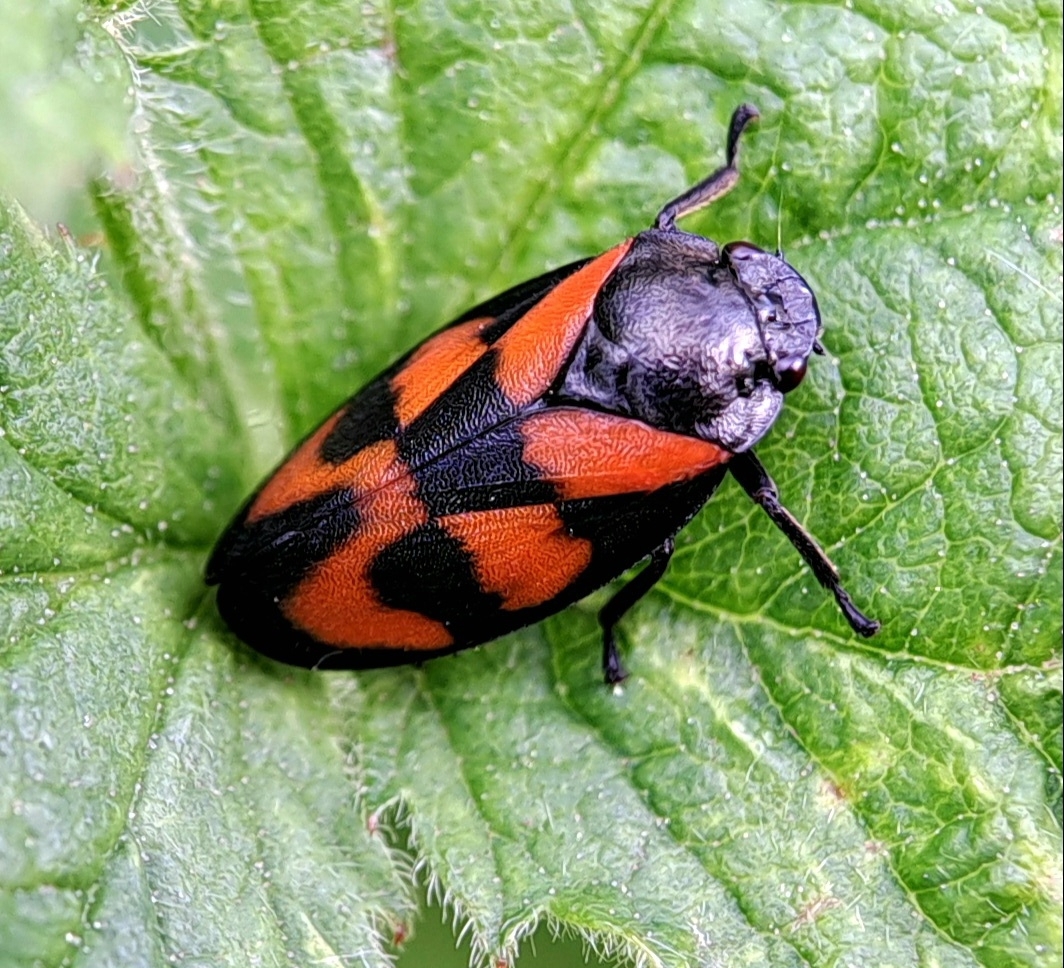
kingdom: Animalia
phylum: Arthropoda
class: Insecta
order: Hemiptera
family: Cercopidae
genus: Cercopis
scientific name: Cercopis vulnerata
